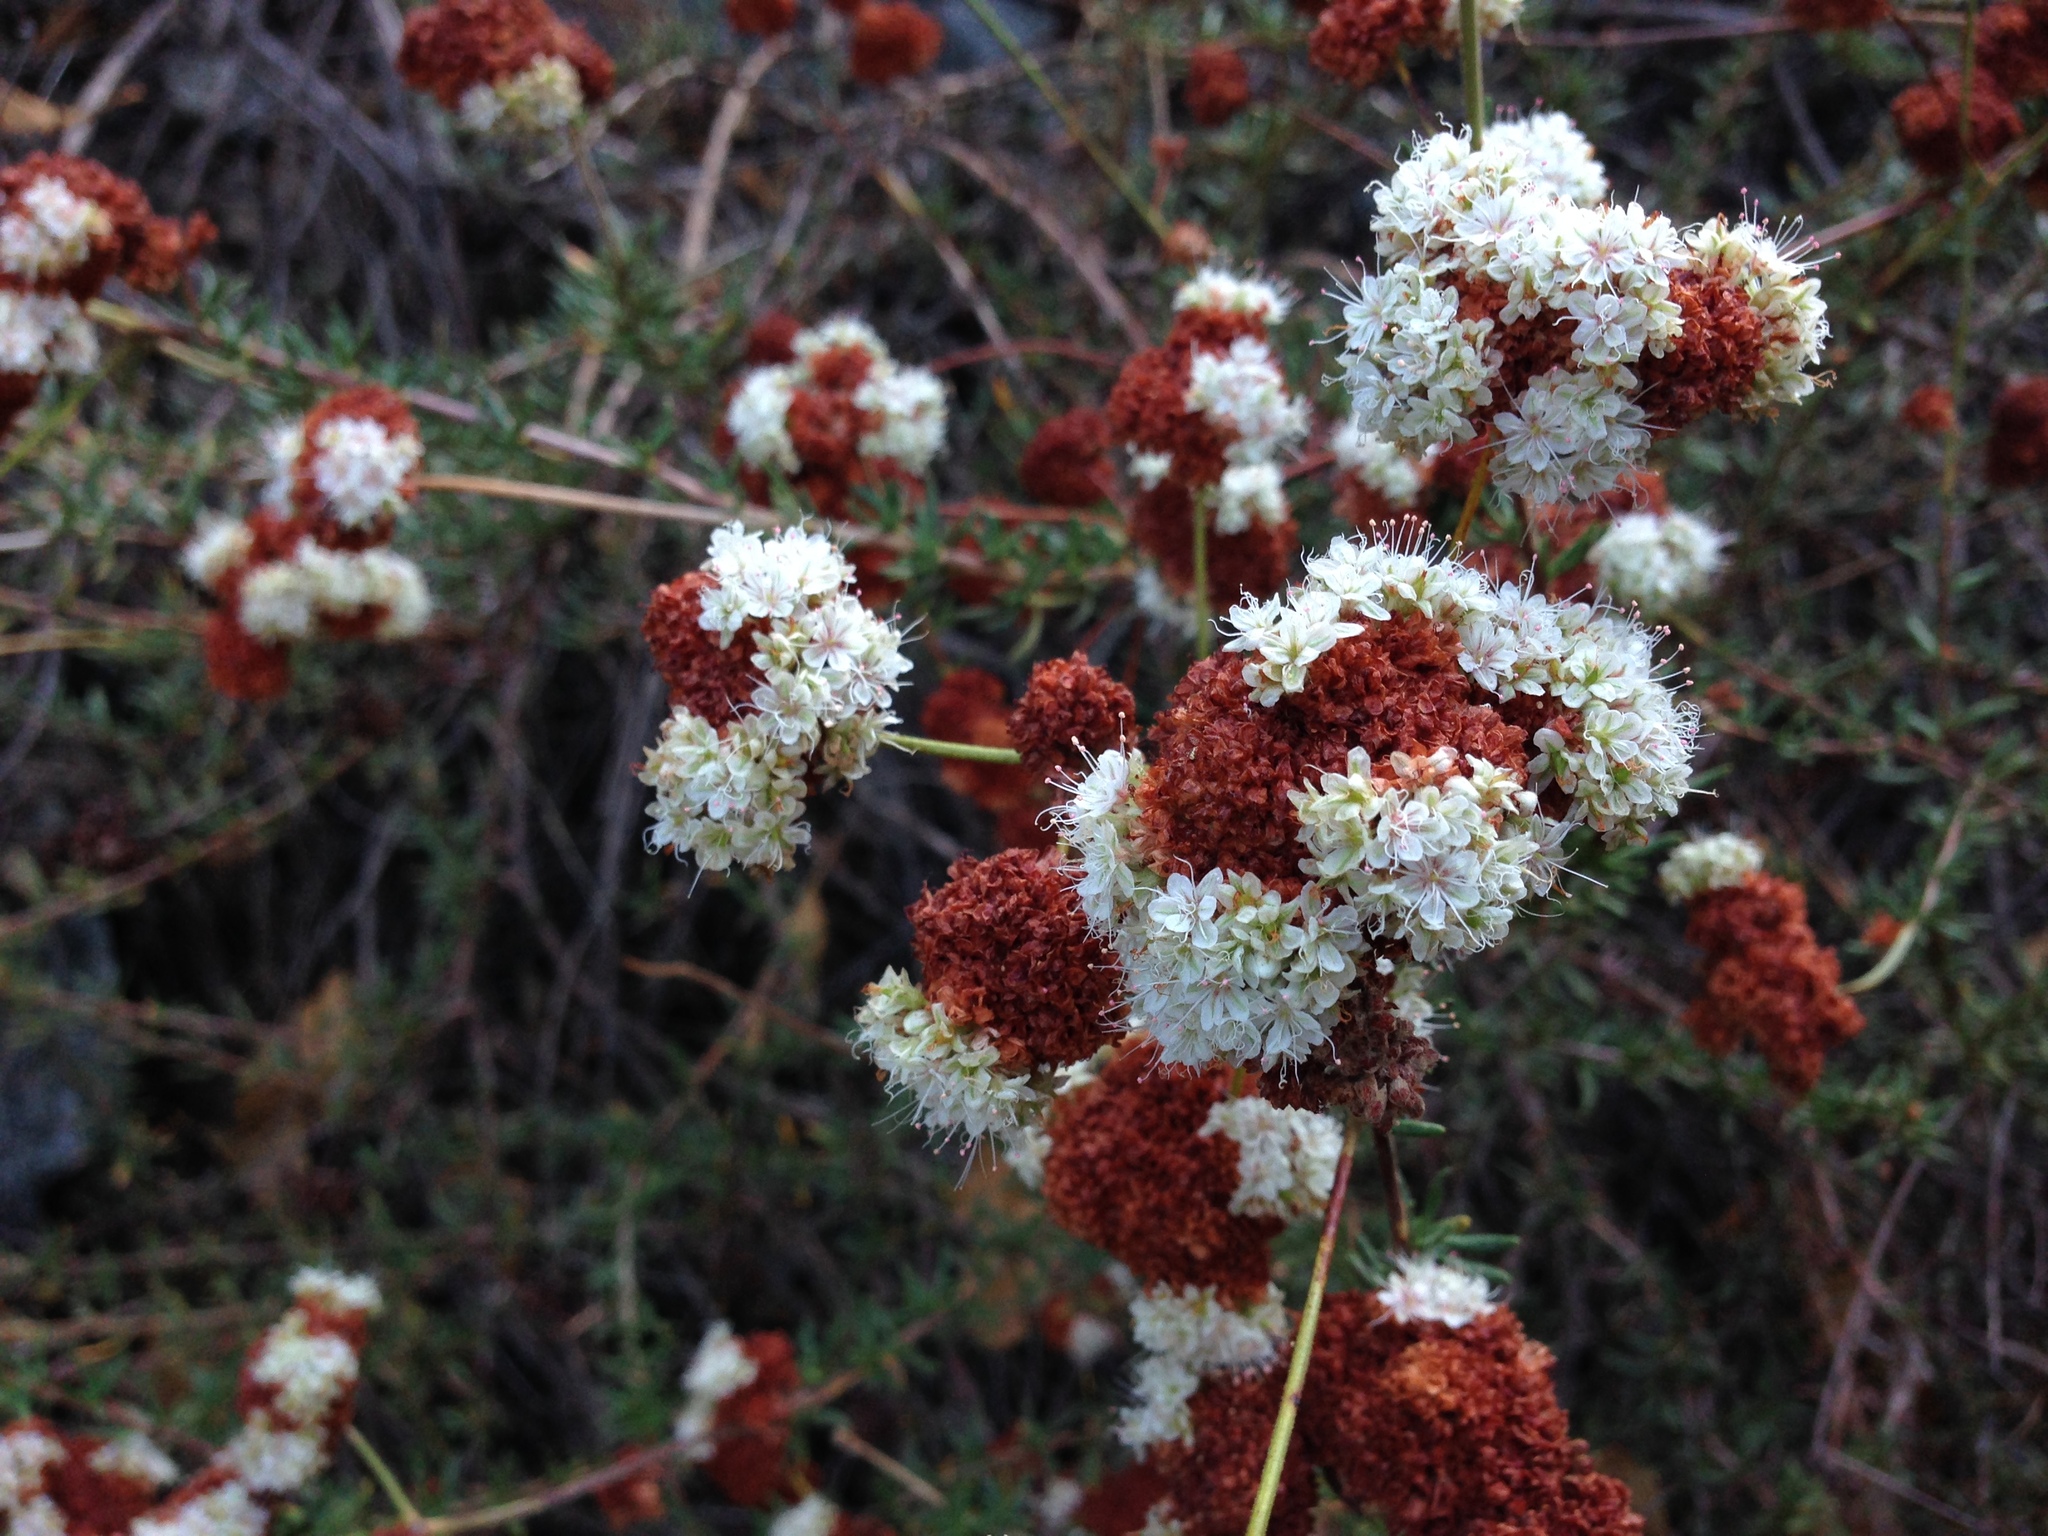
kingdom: Plantae
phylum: Tracheophyta
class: Magnoliopsida
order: Caryophyllales
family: Polygonaceae
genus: Eriogonum
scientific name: Eriogonum fasciculatum
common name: California wild buckwheat
